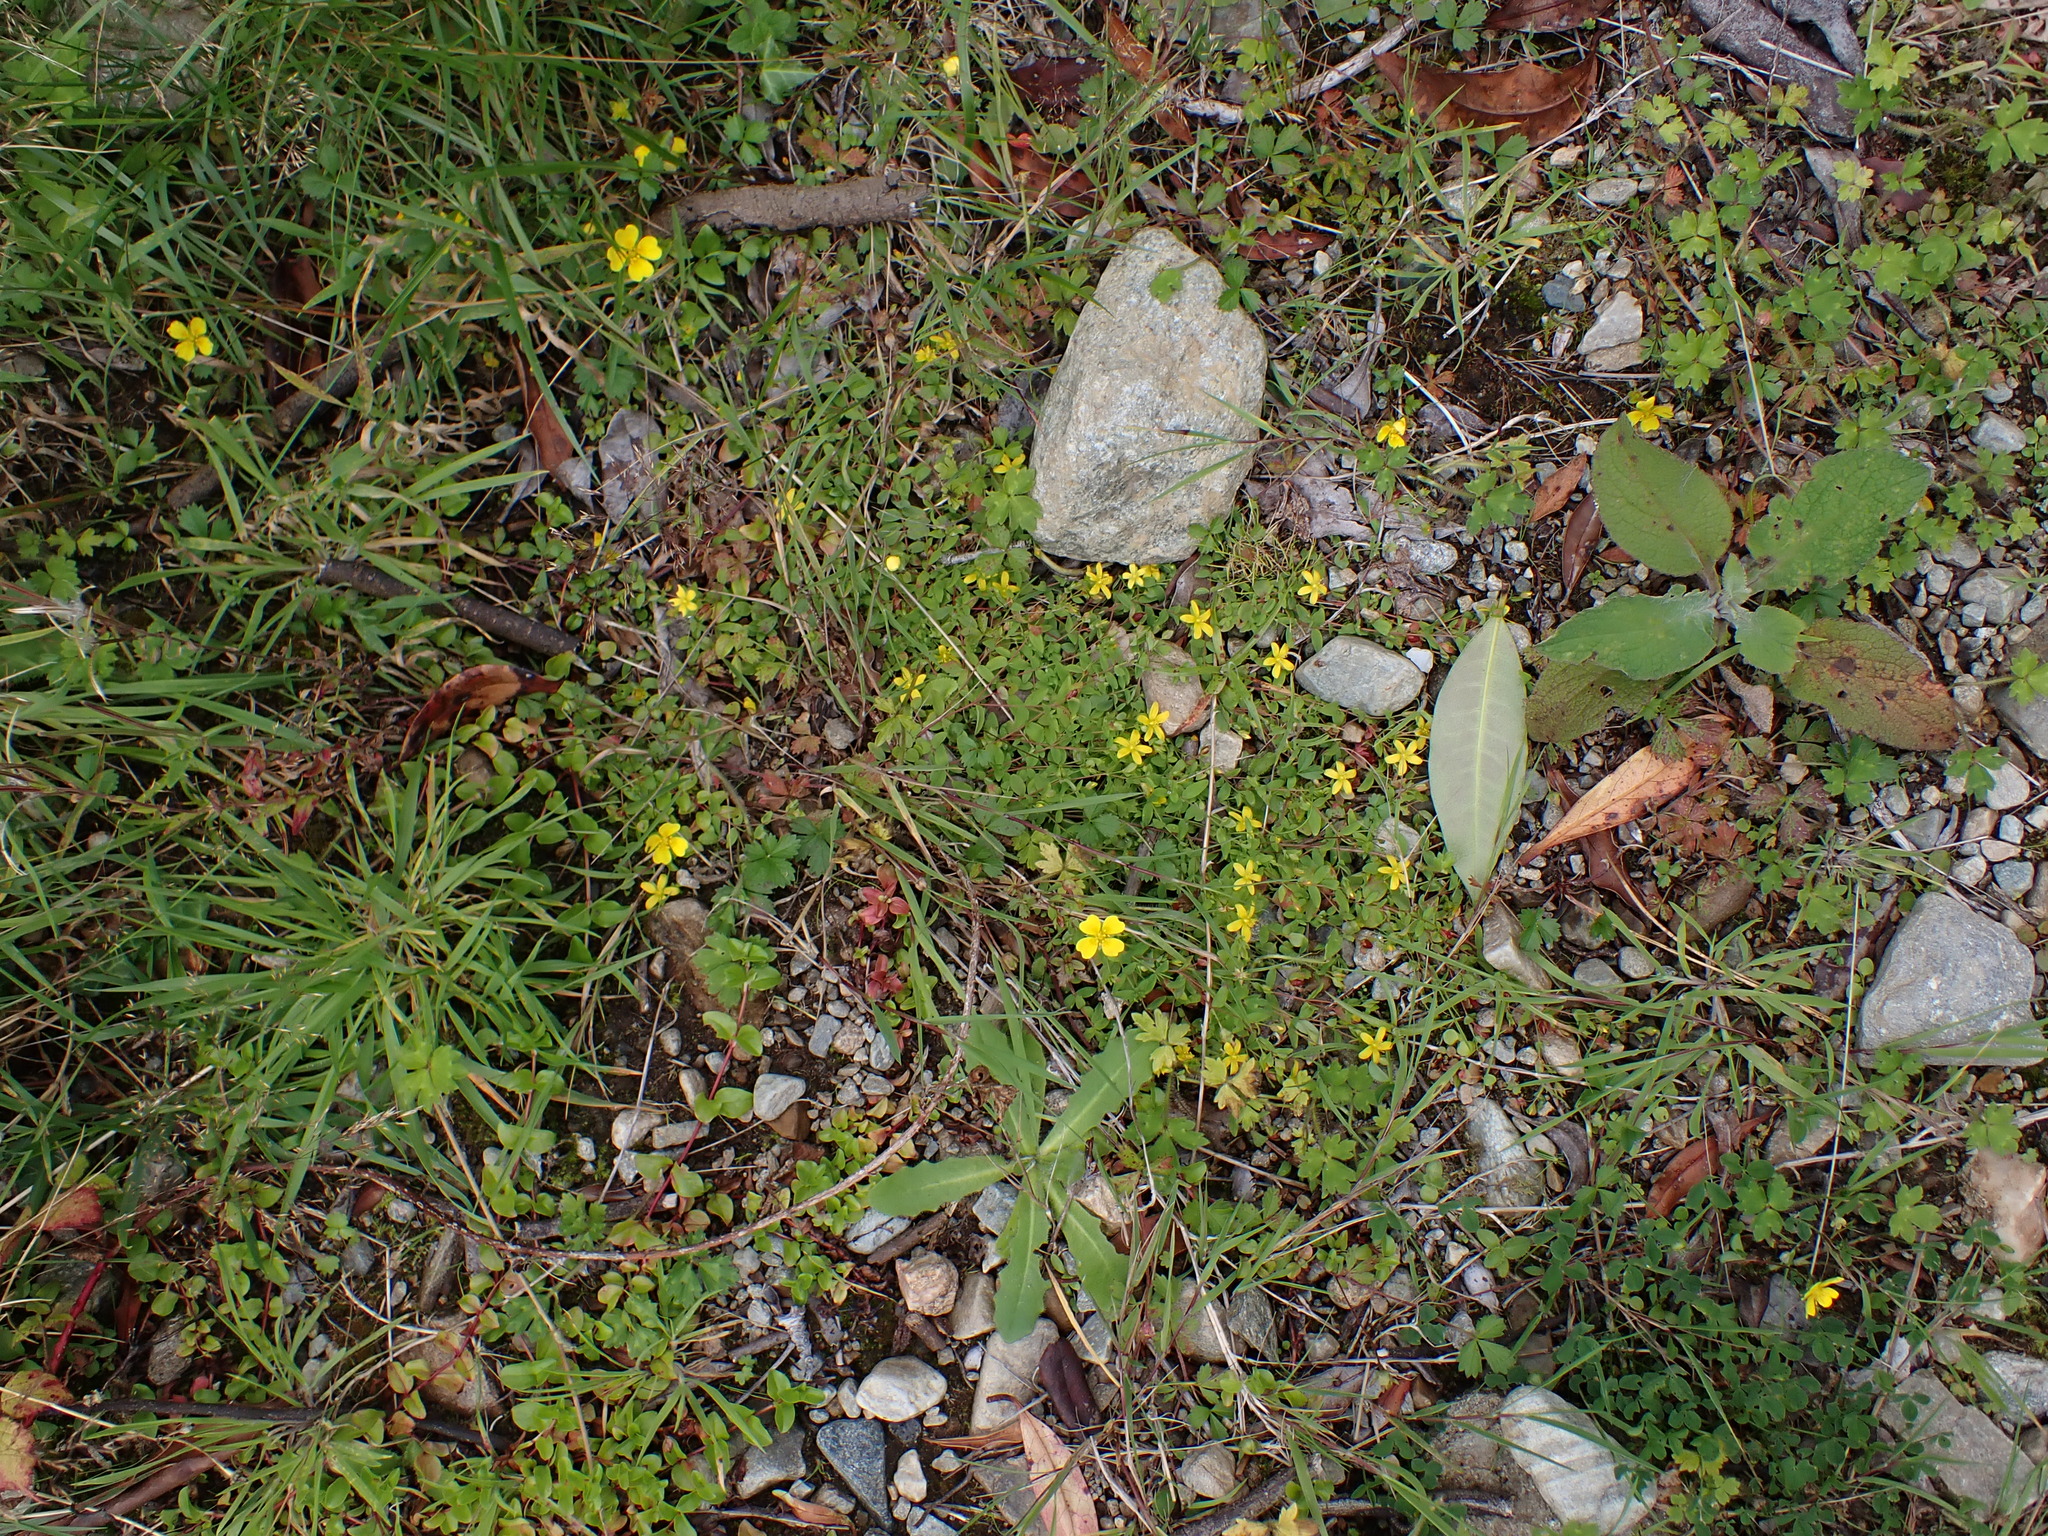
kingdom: Plantae
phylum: Tracheophyta
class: Magnoliopsida
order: Malpighiales
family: Hypericaceae
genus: Hypericum
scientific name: Hypericum humifusum
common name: Trailing st. john's-wort
